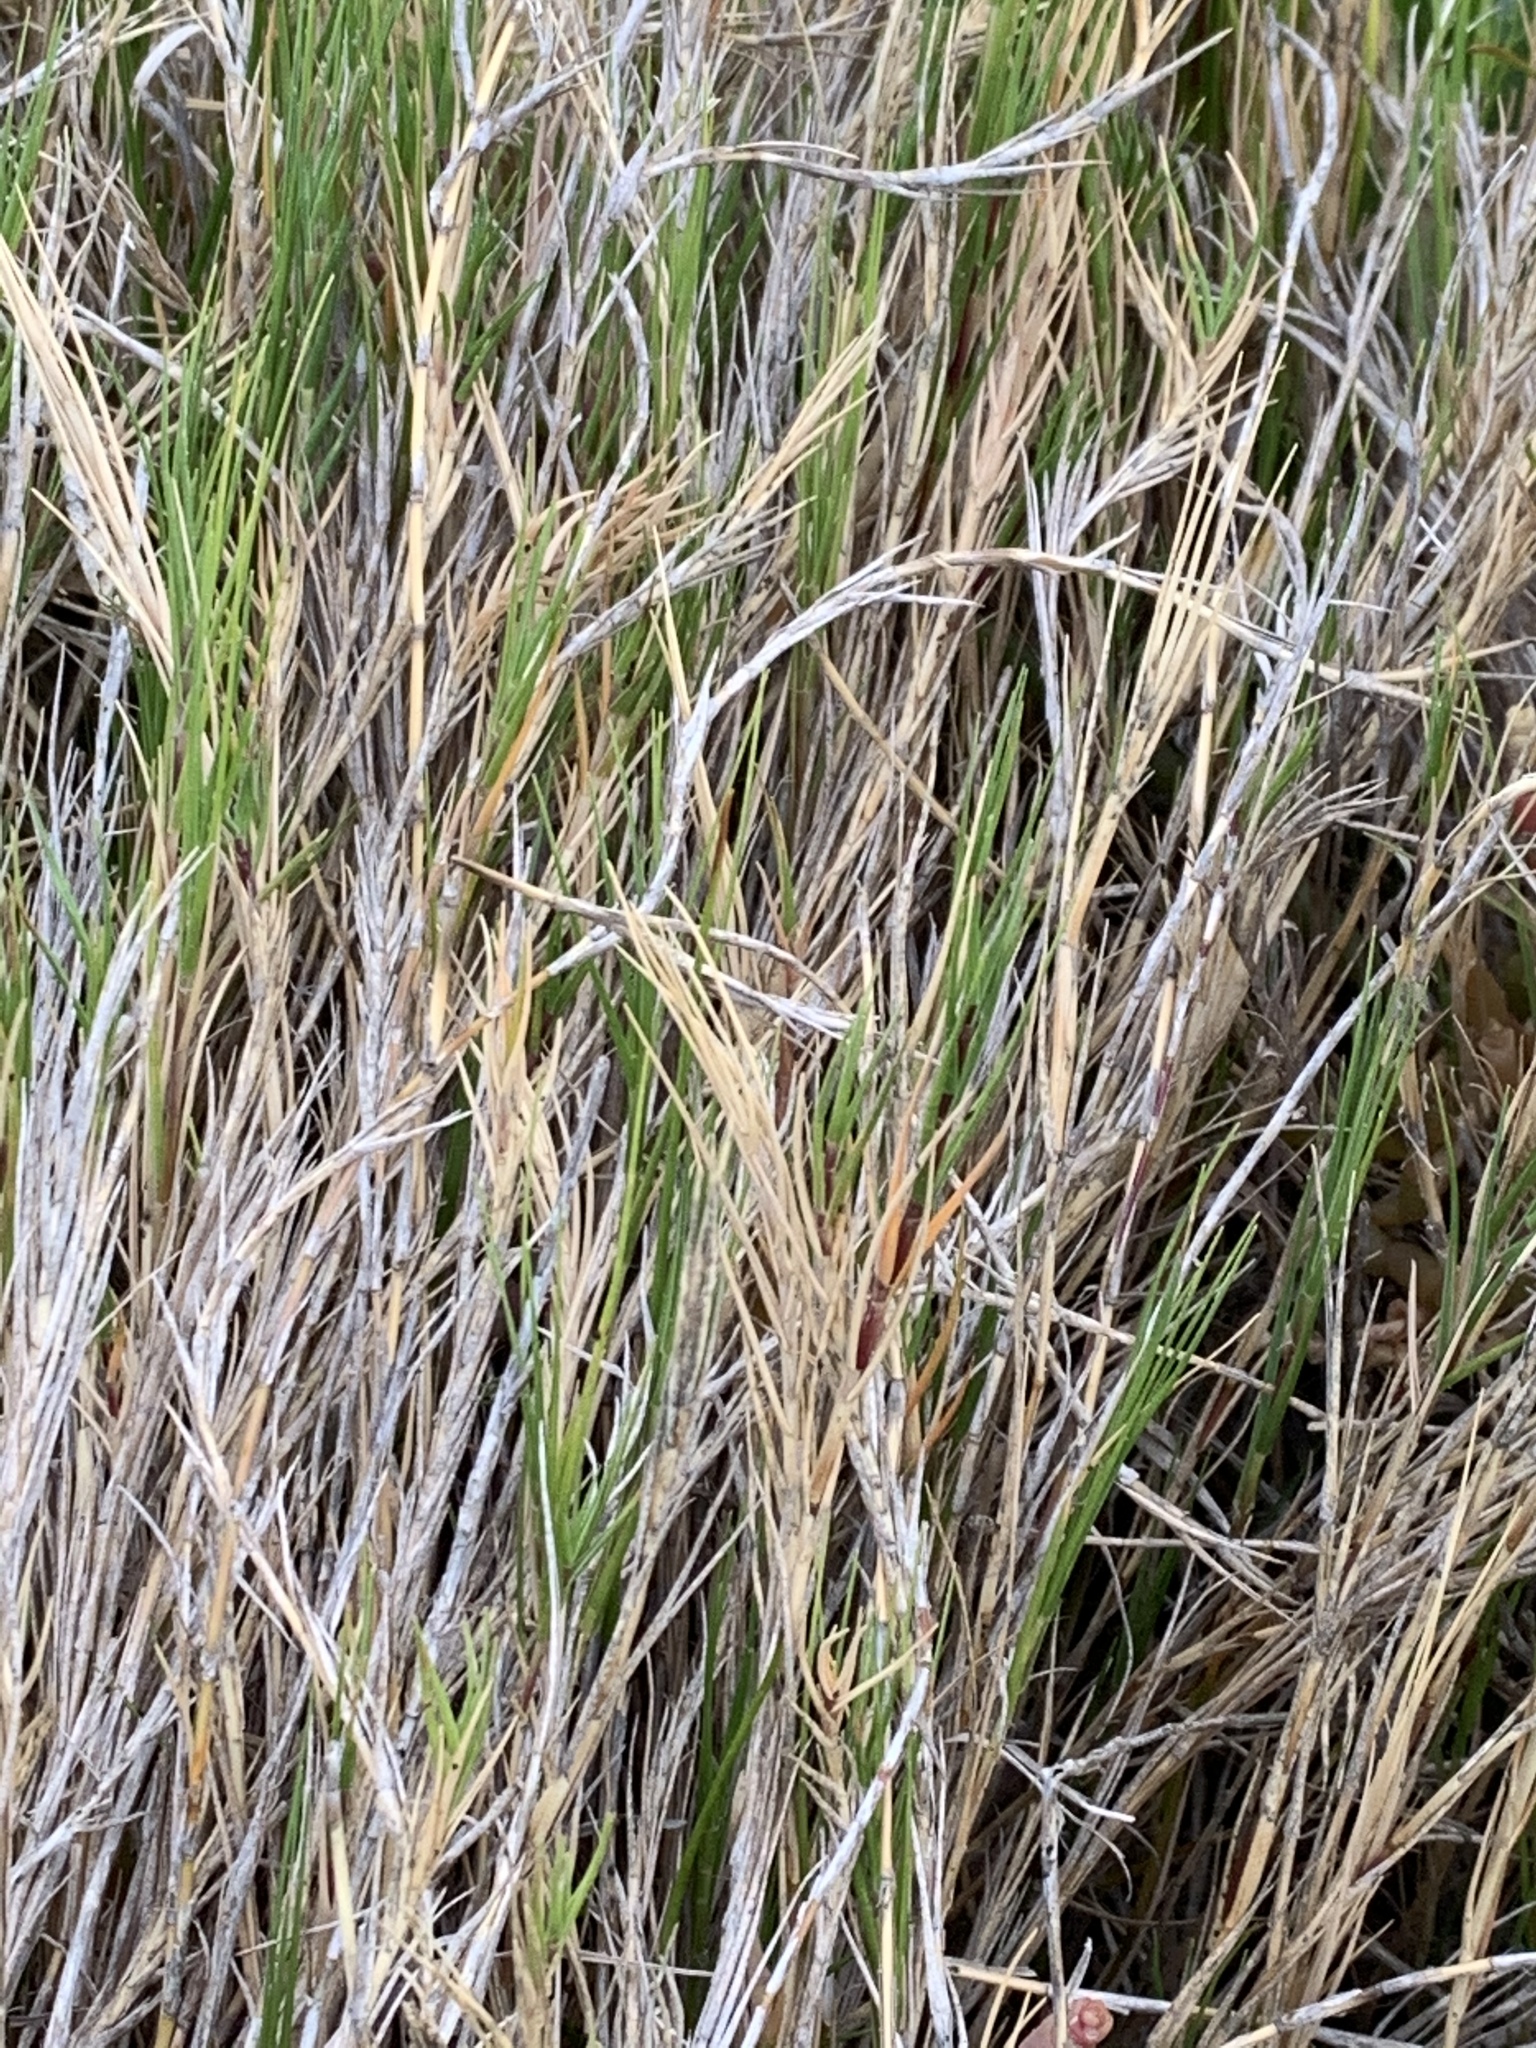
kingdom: Plantae
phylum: Tracheophyta
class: Liliopsida
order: Poales
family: Poaceae
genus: Cynodon
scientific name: Cynodon dactylon
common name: Bermuda grass
